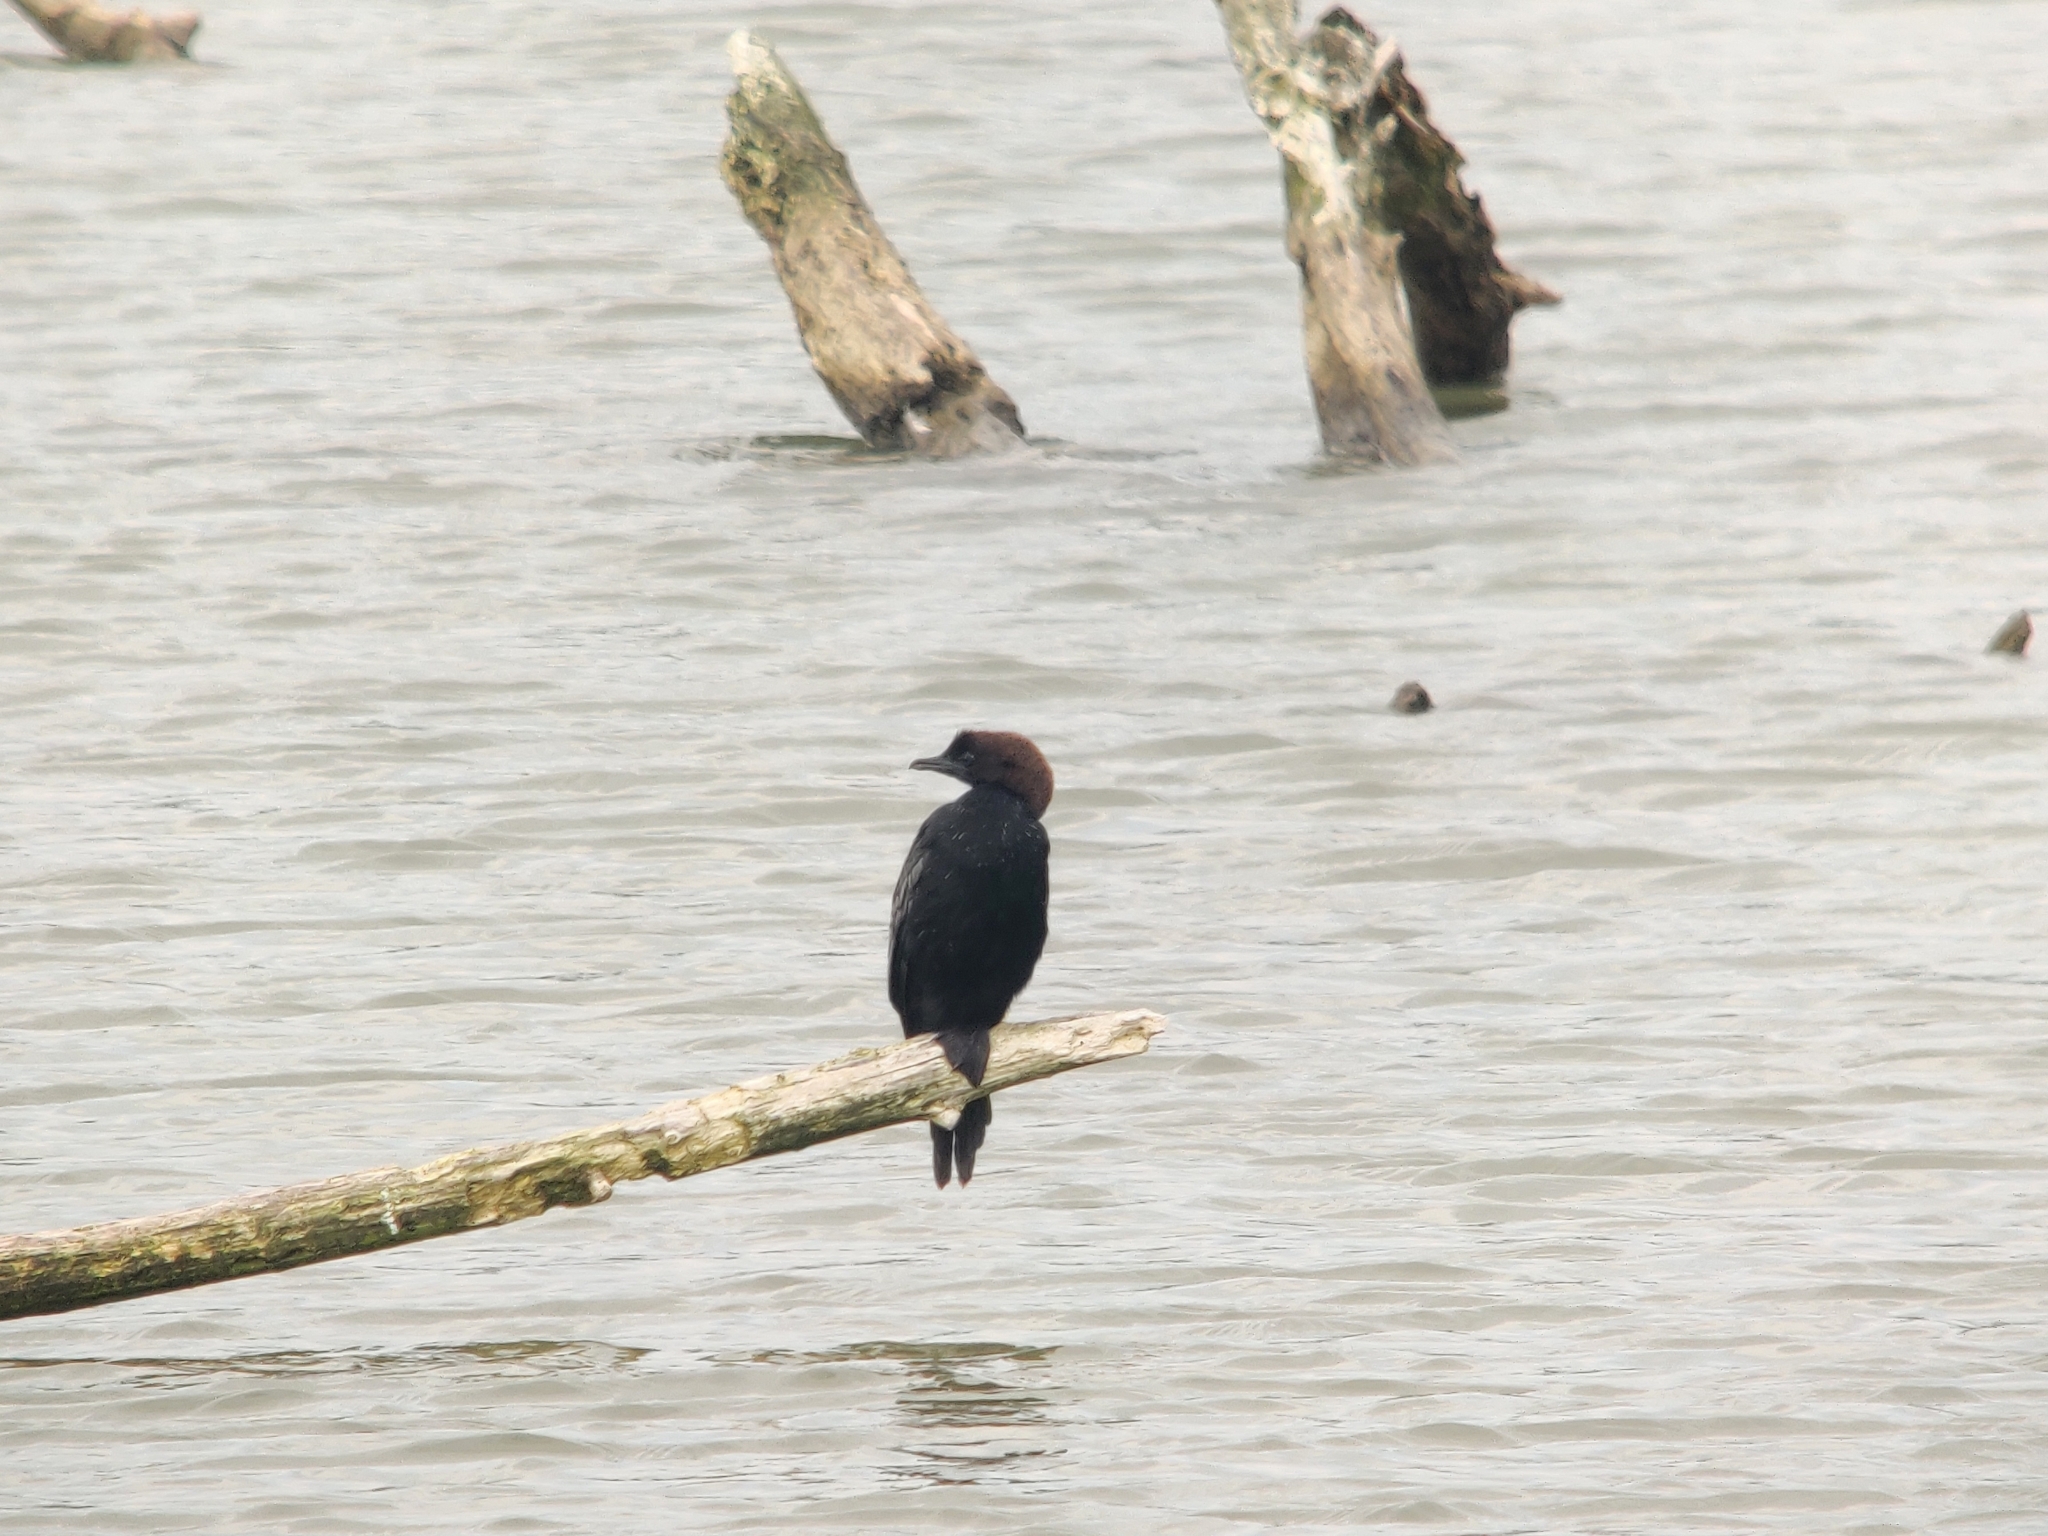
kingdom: Animalia
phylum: Chordata
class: Aves
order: Suliformes
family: Phalacrocoracidae
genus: Microcarbo
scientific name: Microcarbo pygmaeus
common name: Pygmy cormorant
